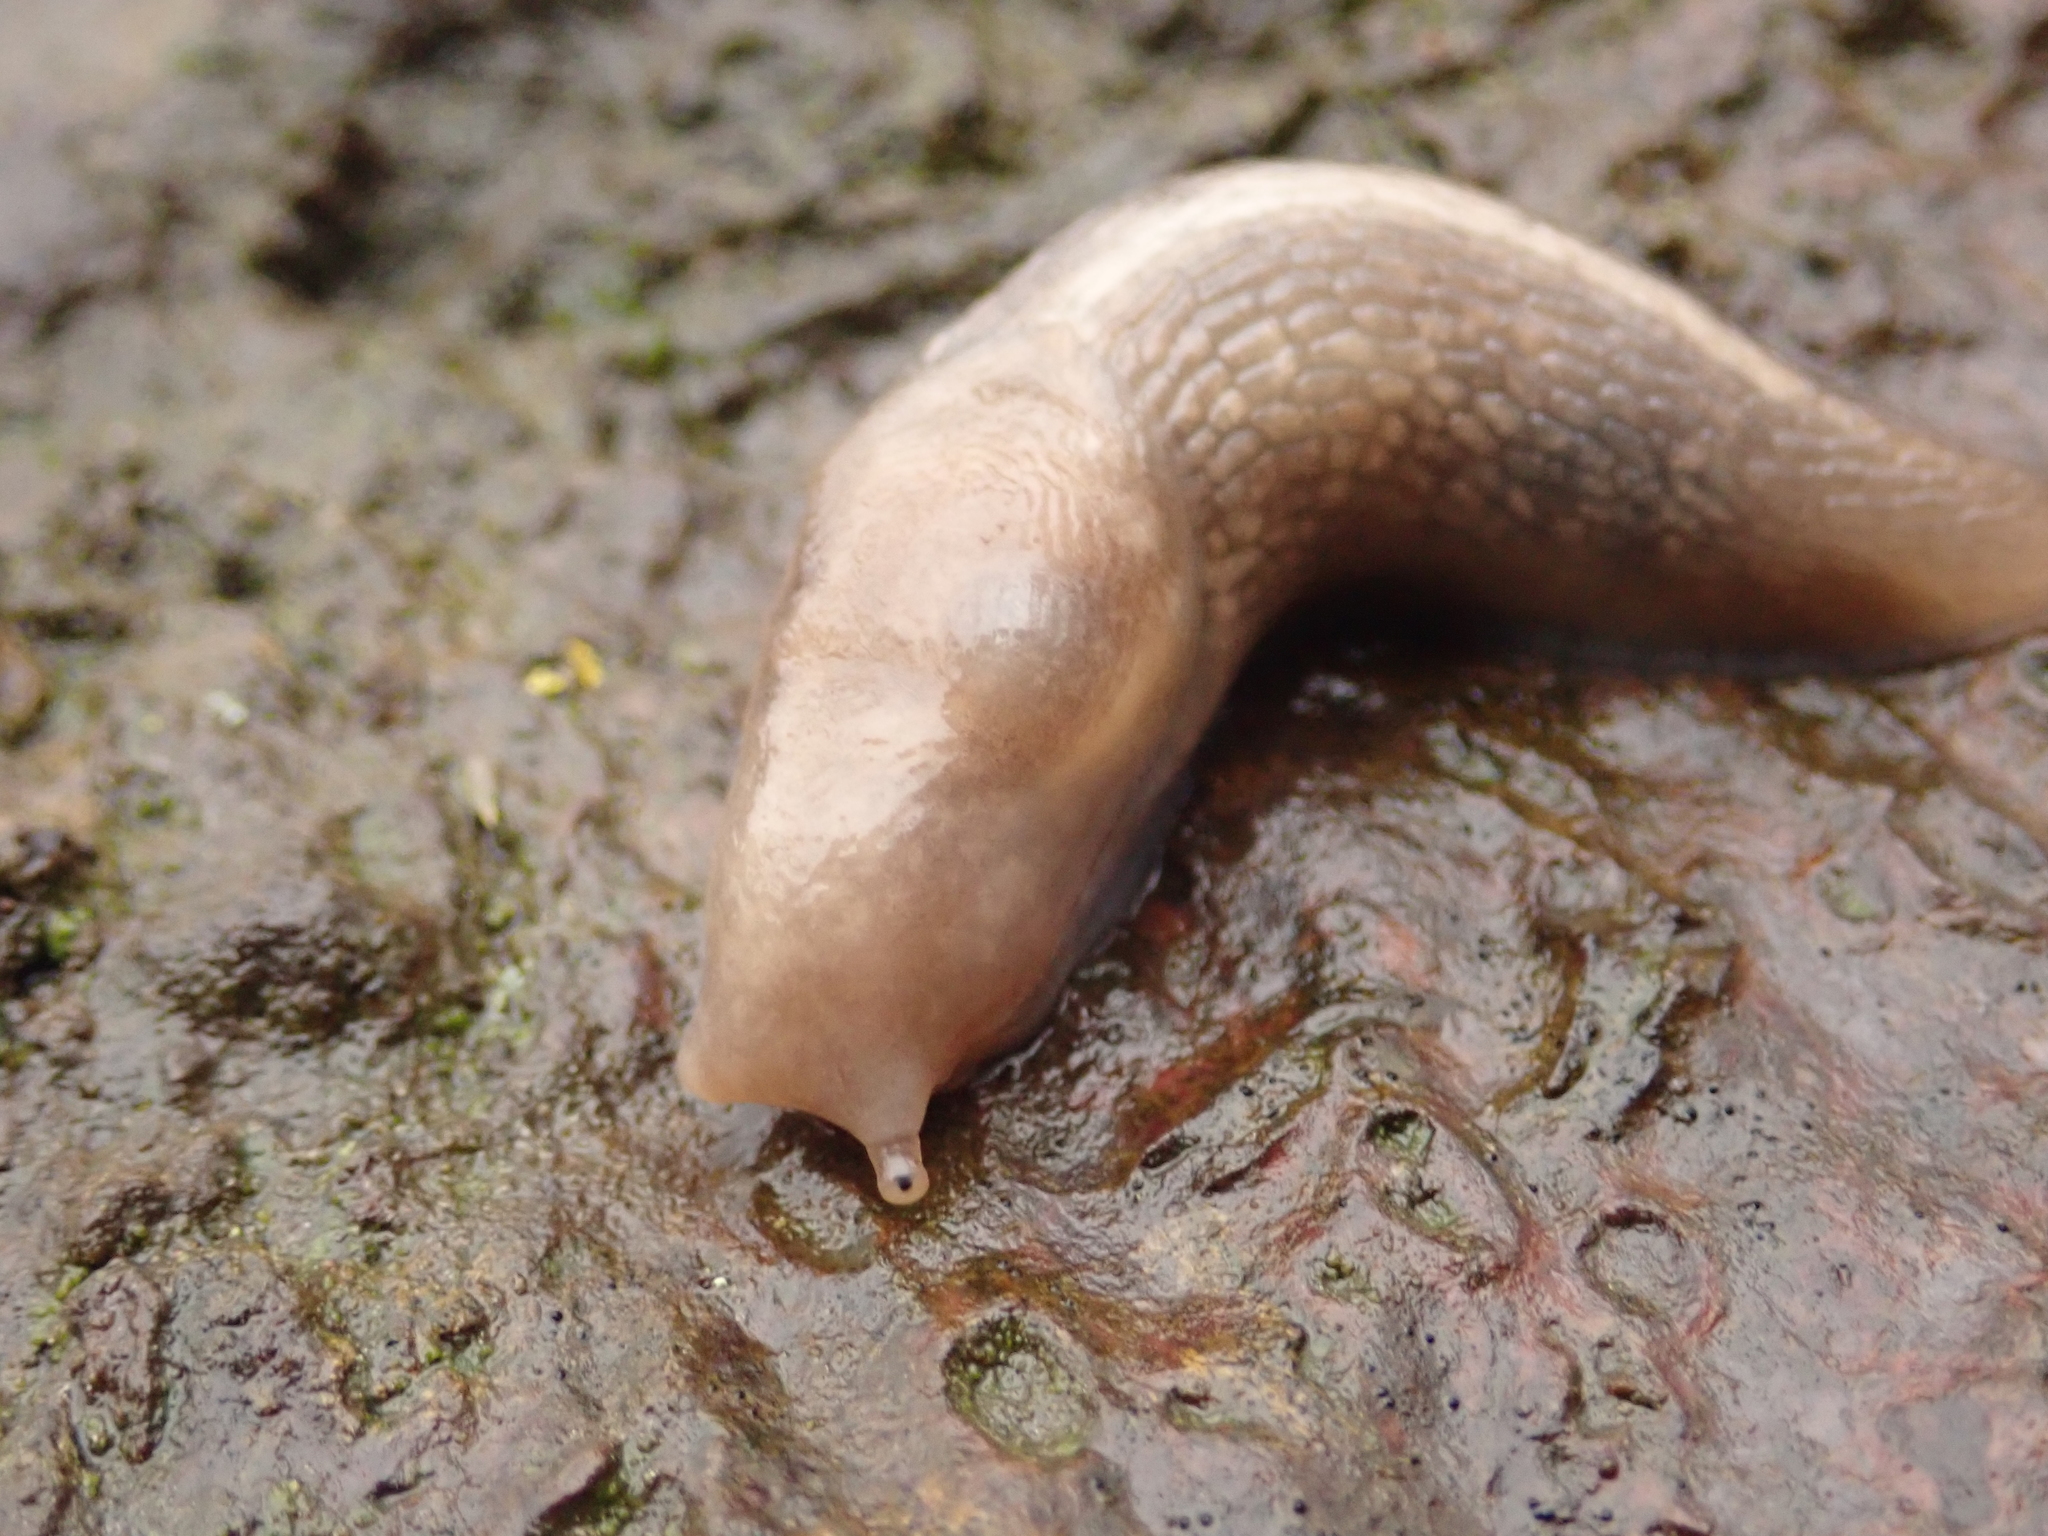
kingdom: Animalia
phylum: Mollusca
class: Gastropoda
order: Stylommatophora
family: Limacidae
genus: Lehmannia
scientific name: Lehmannia marginata
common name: Tree slug
